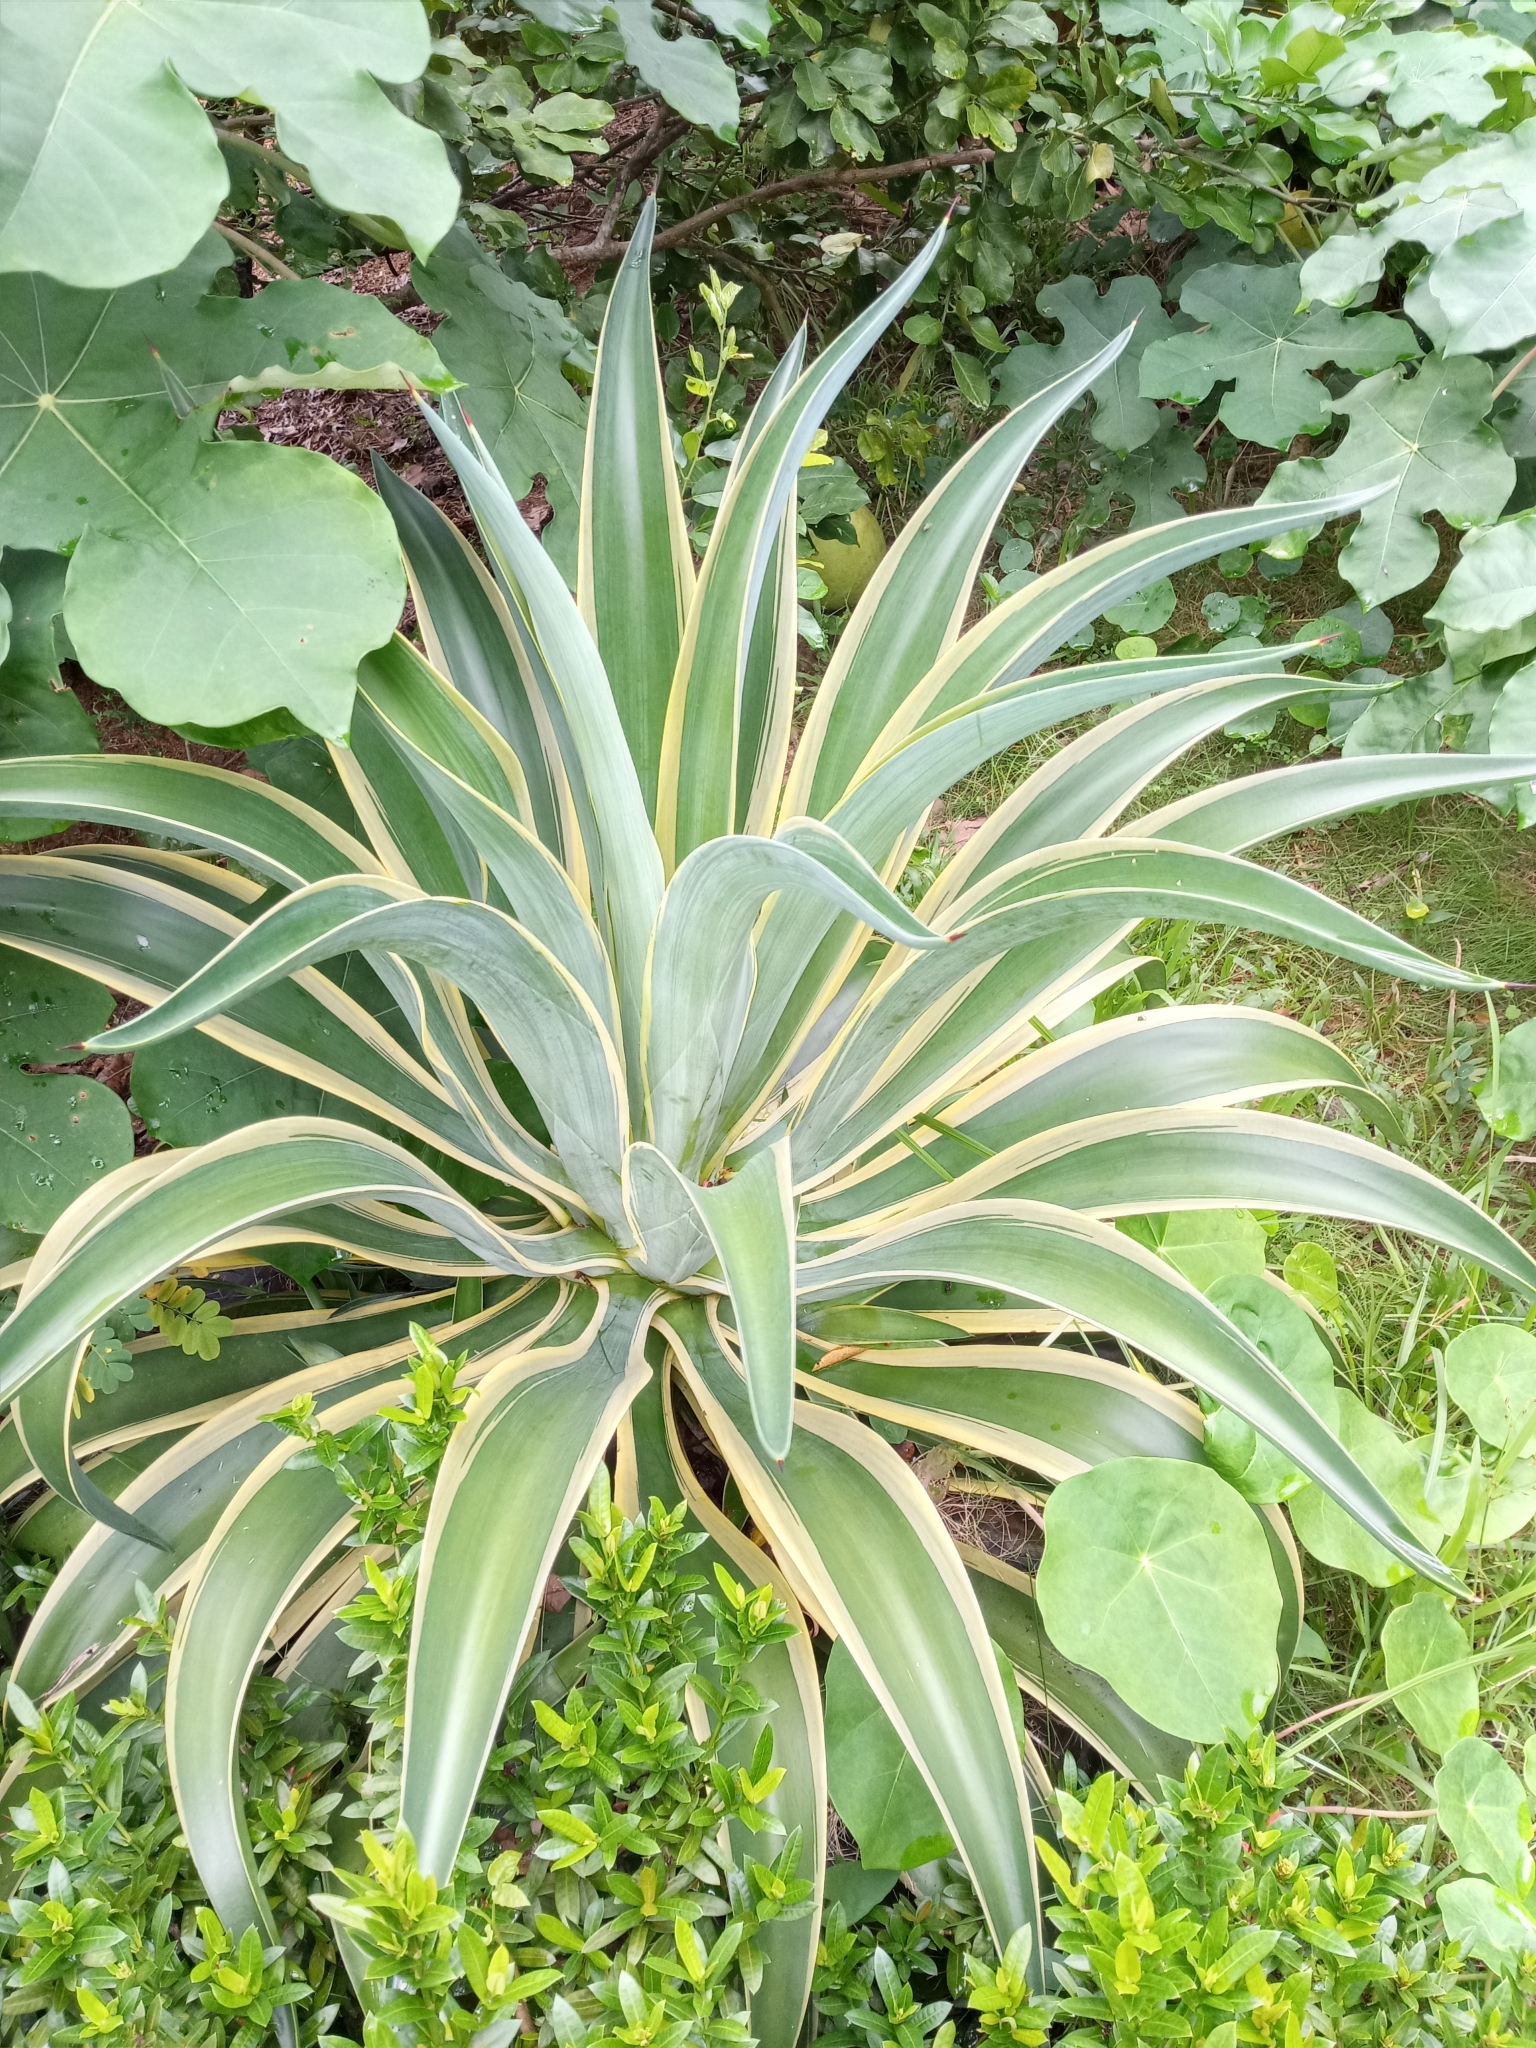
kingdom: Plantae
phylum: Tracheophyta
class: Liliopsida
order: Asparagales
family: Asparagaceae
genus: Agave
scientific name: Agave
